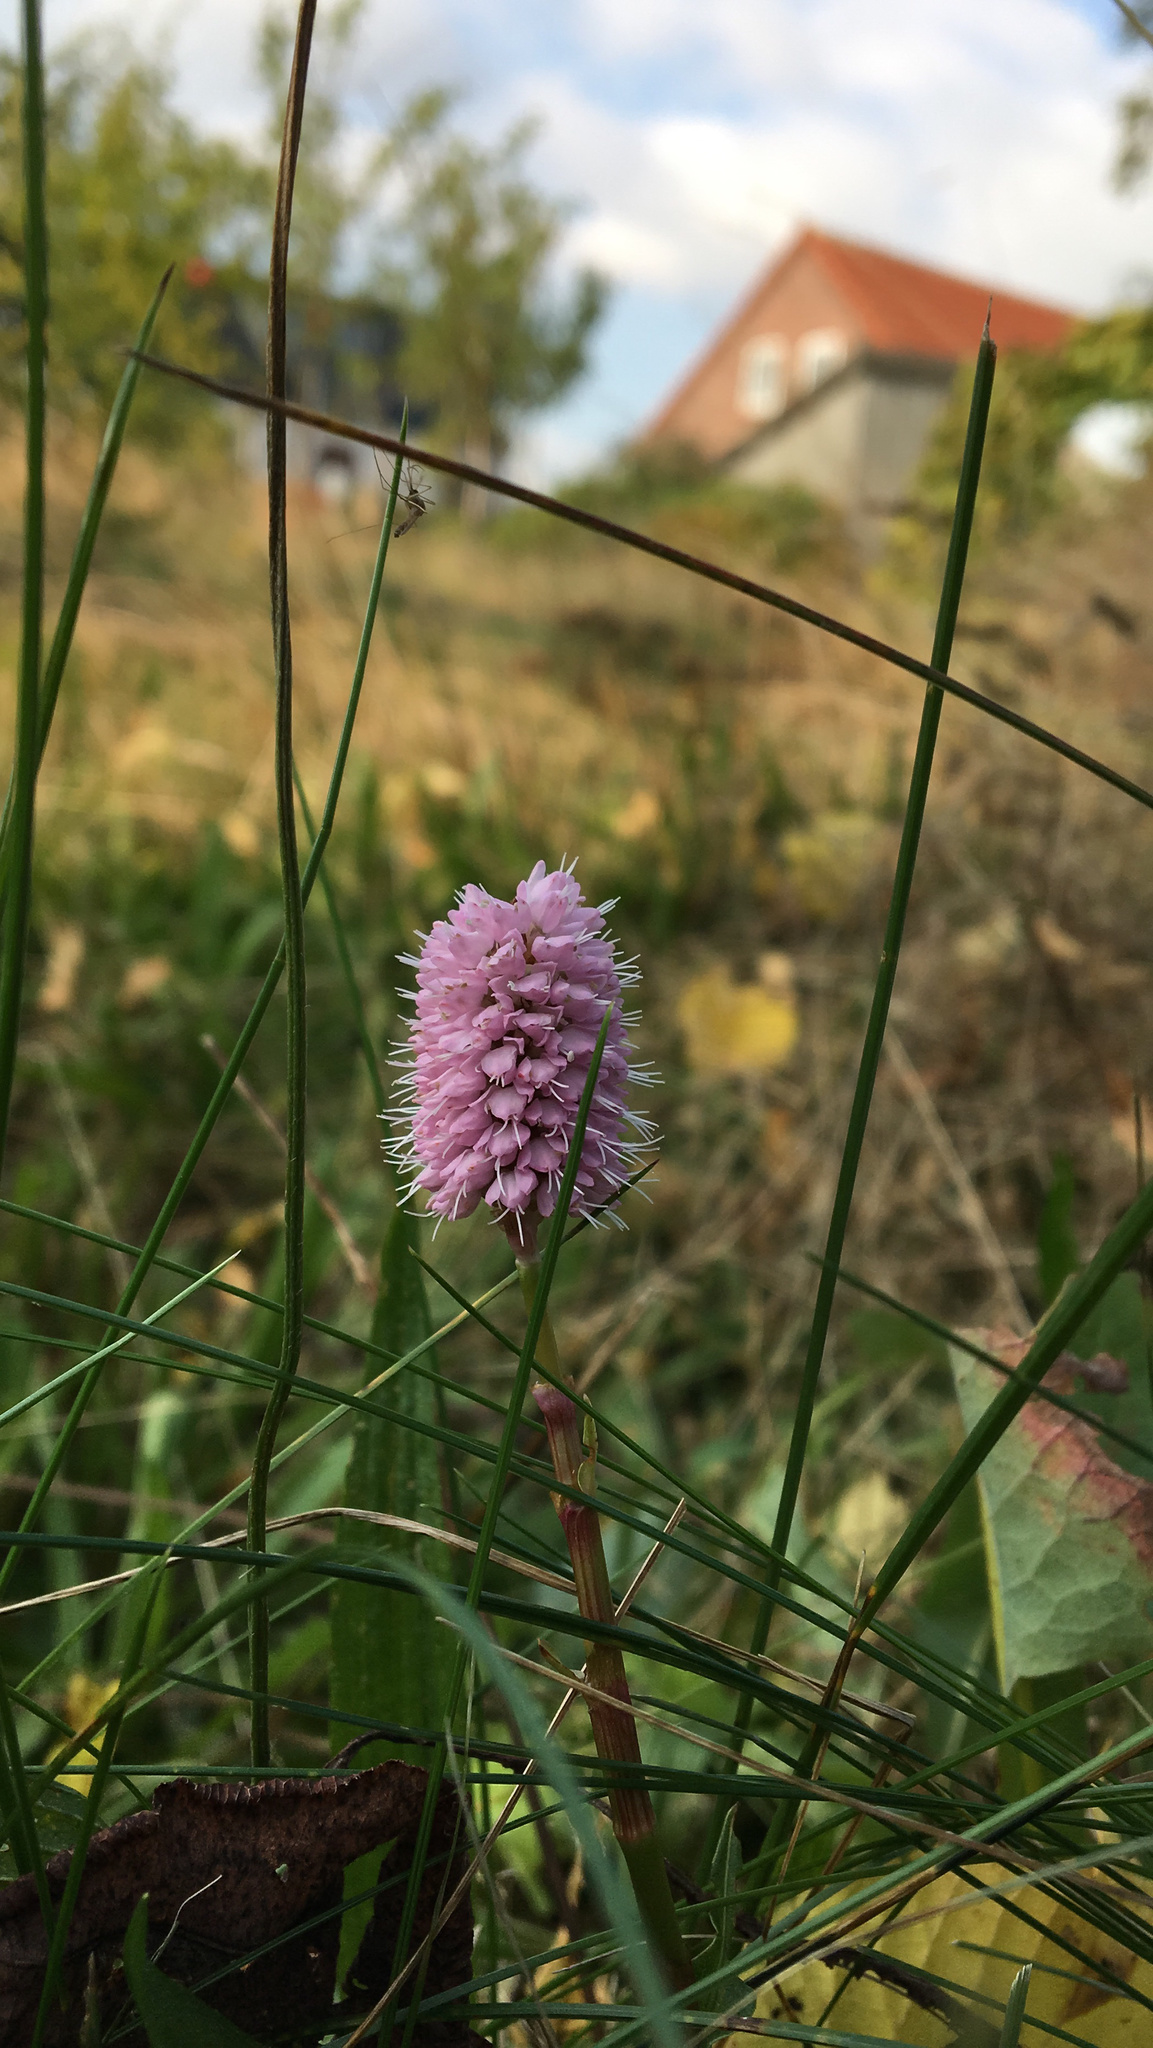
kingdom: Plantae
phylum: Tracheophyta
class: Magnoliopsida
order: Caryophyllales
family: Polygonaceae
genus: Bistorta
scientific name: Bistorta officinalis
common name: Common bistort
